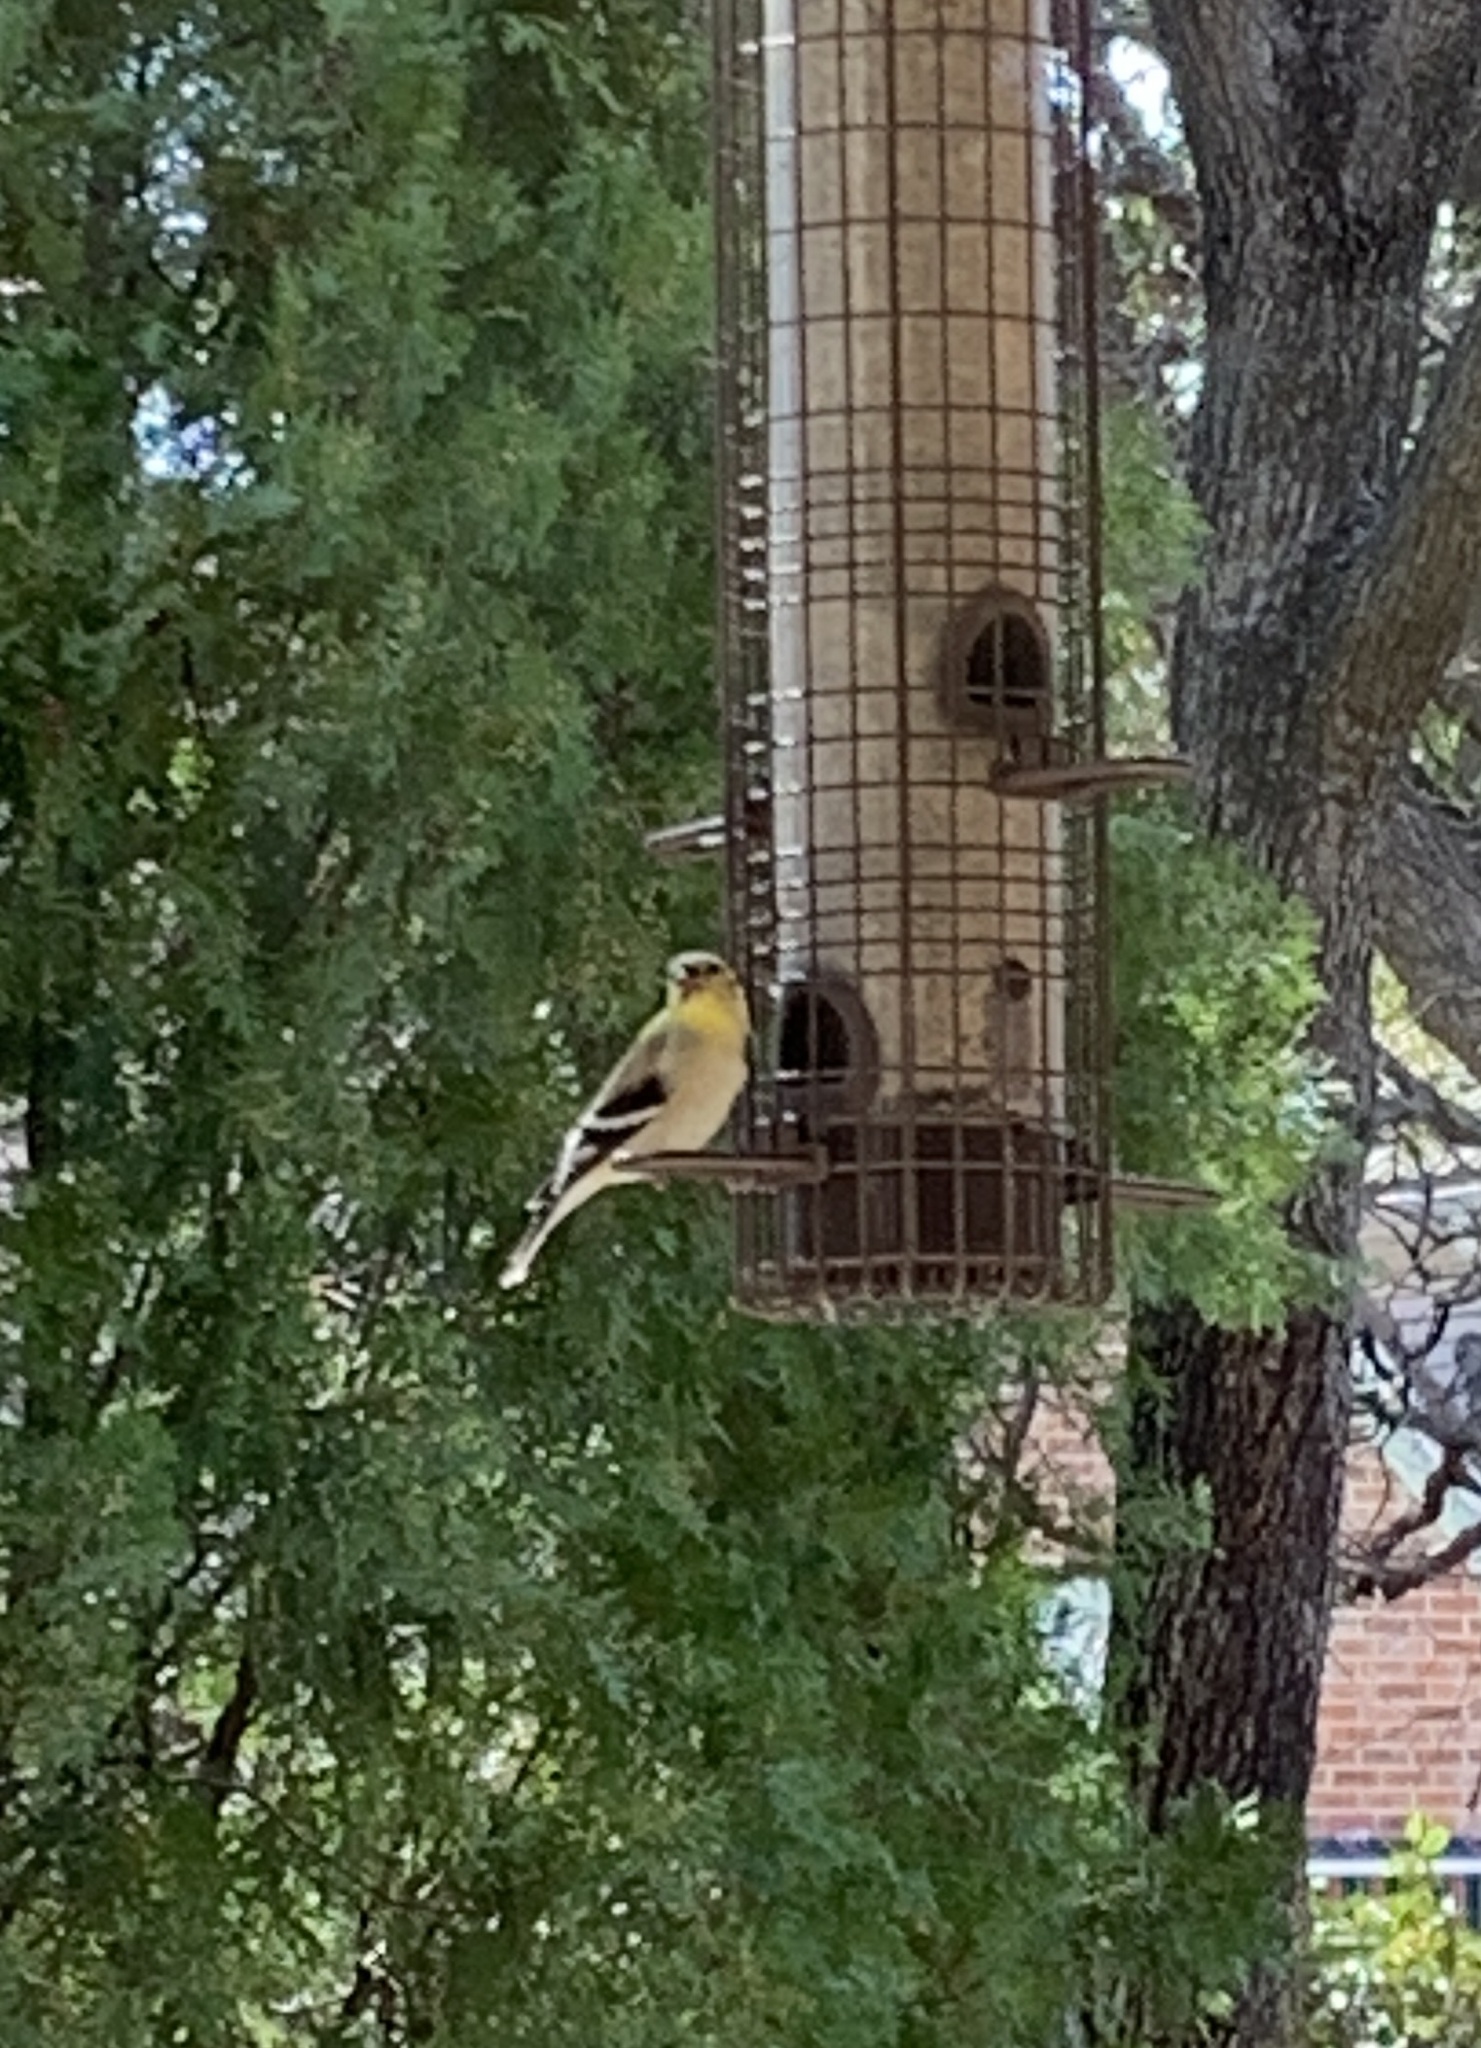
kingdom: Animalia
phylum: Chordata
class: Aves
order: Passeriformes
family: Fringillidae
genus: Spinus
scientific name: Spinus tristis
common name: American goldfinch
